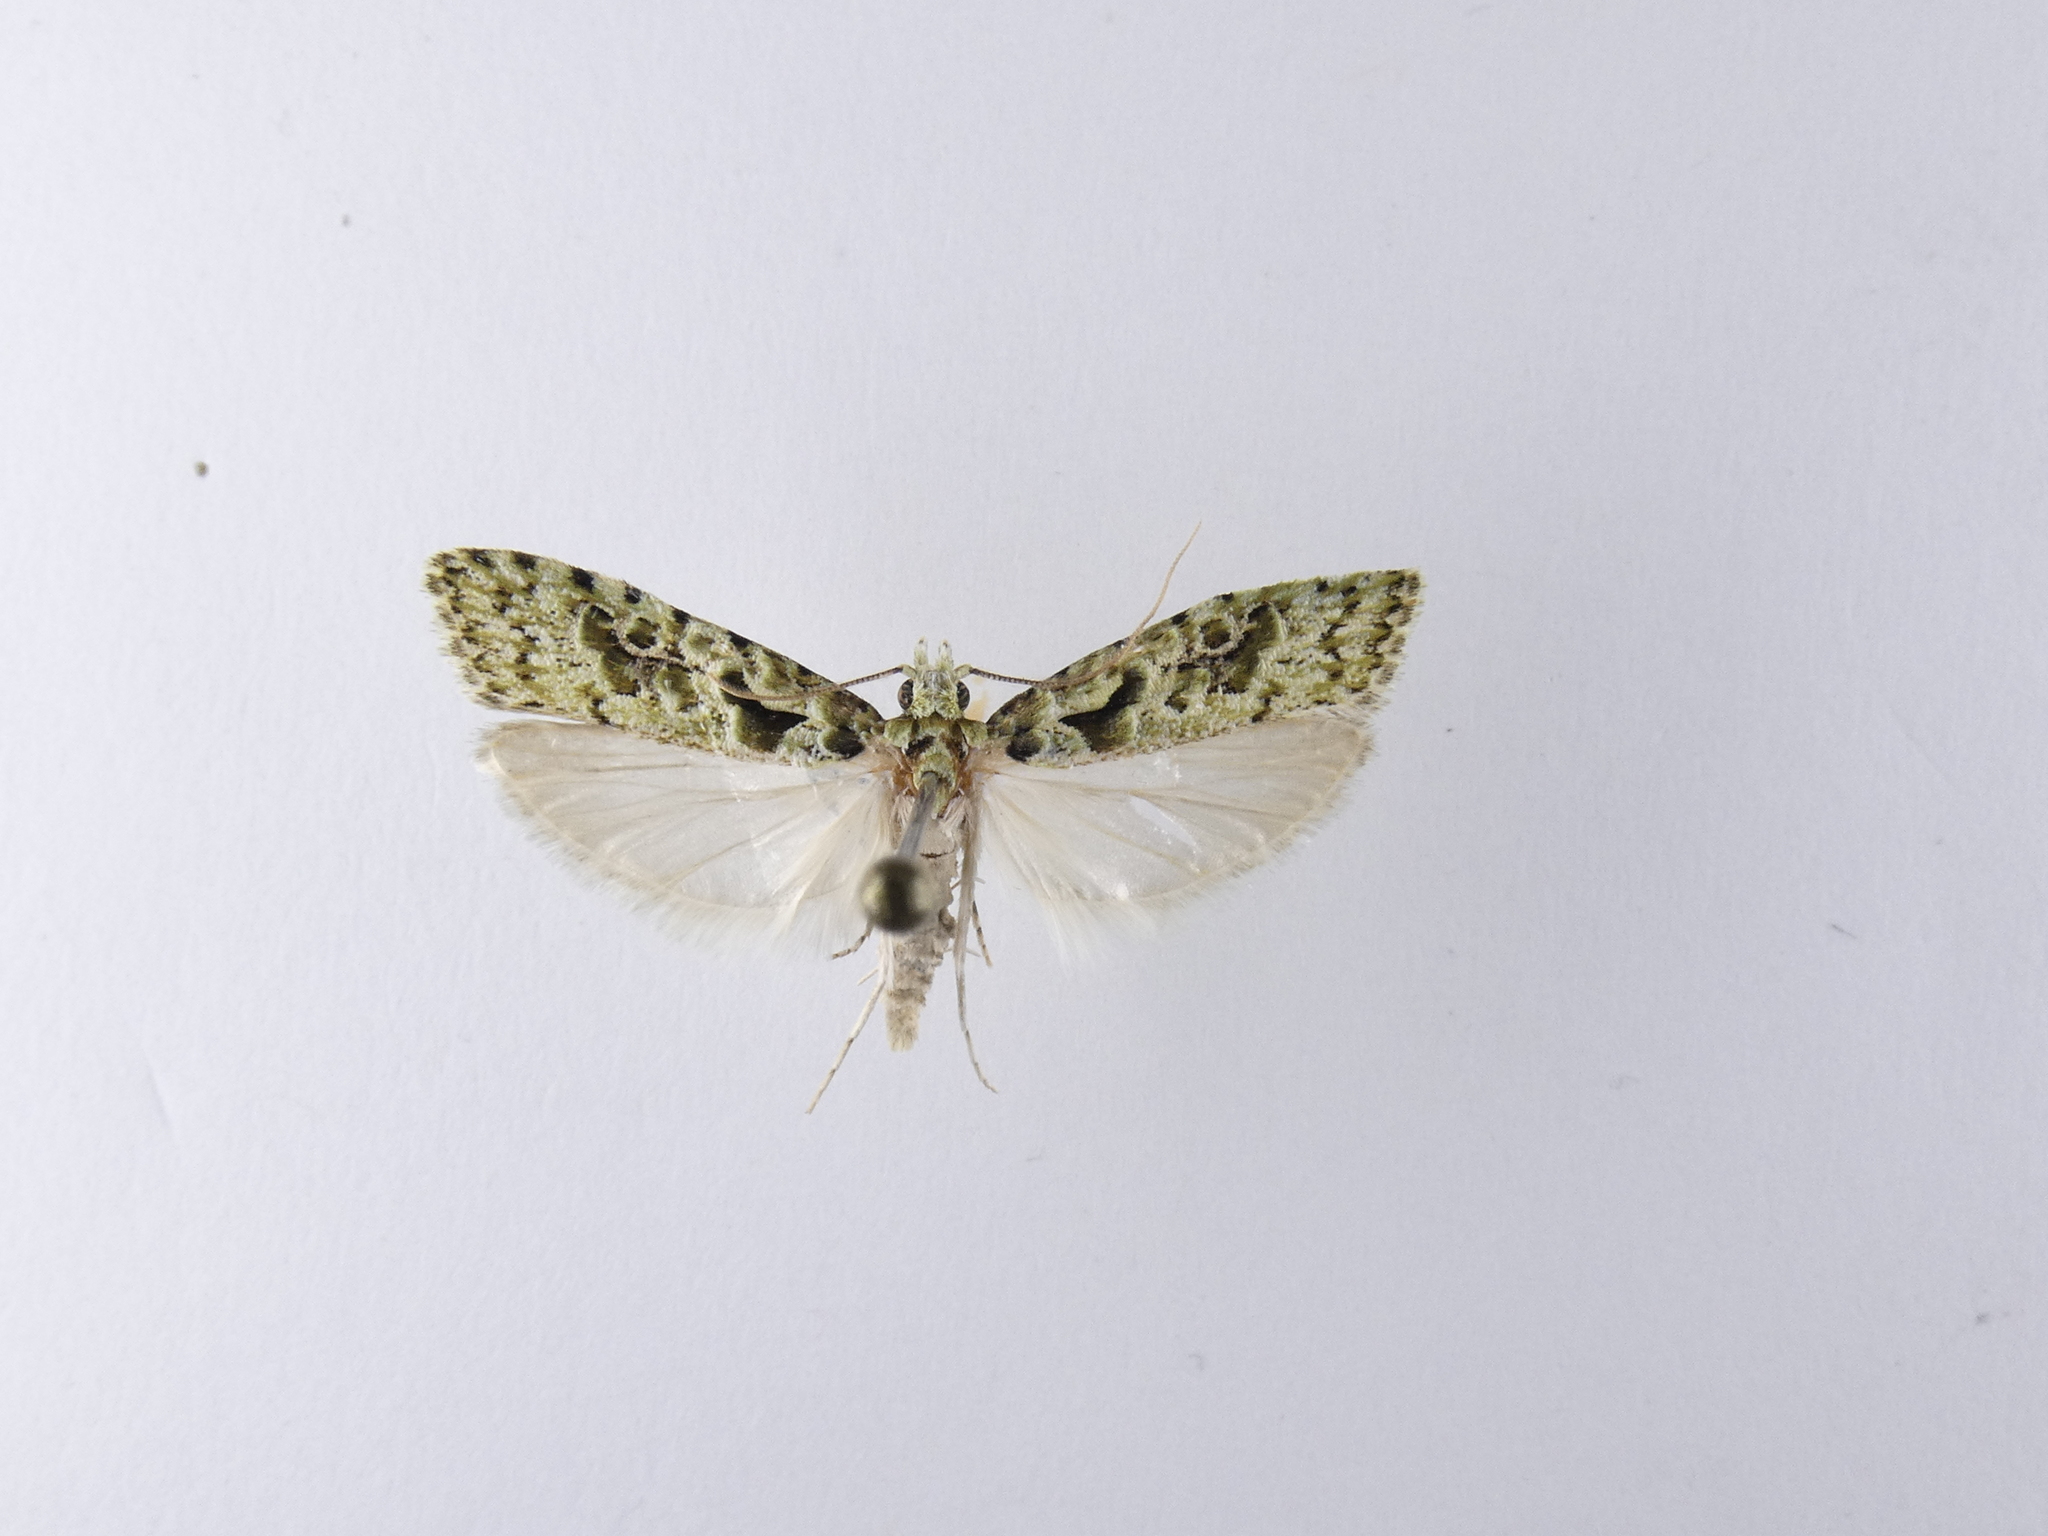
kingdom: Animalia
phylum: Arthropoda
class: Insecta
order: Lepidoptera
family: Carposinidae
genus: Carposina
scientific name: Carposina Heterocrossa eriphylla
